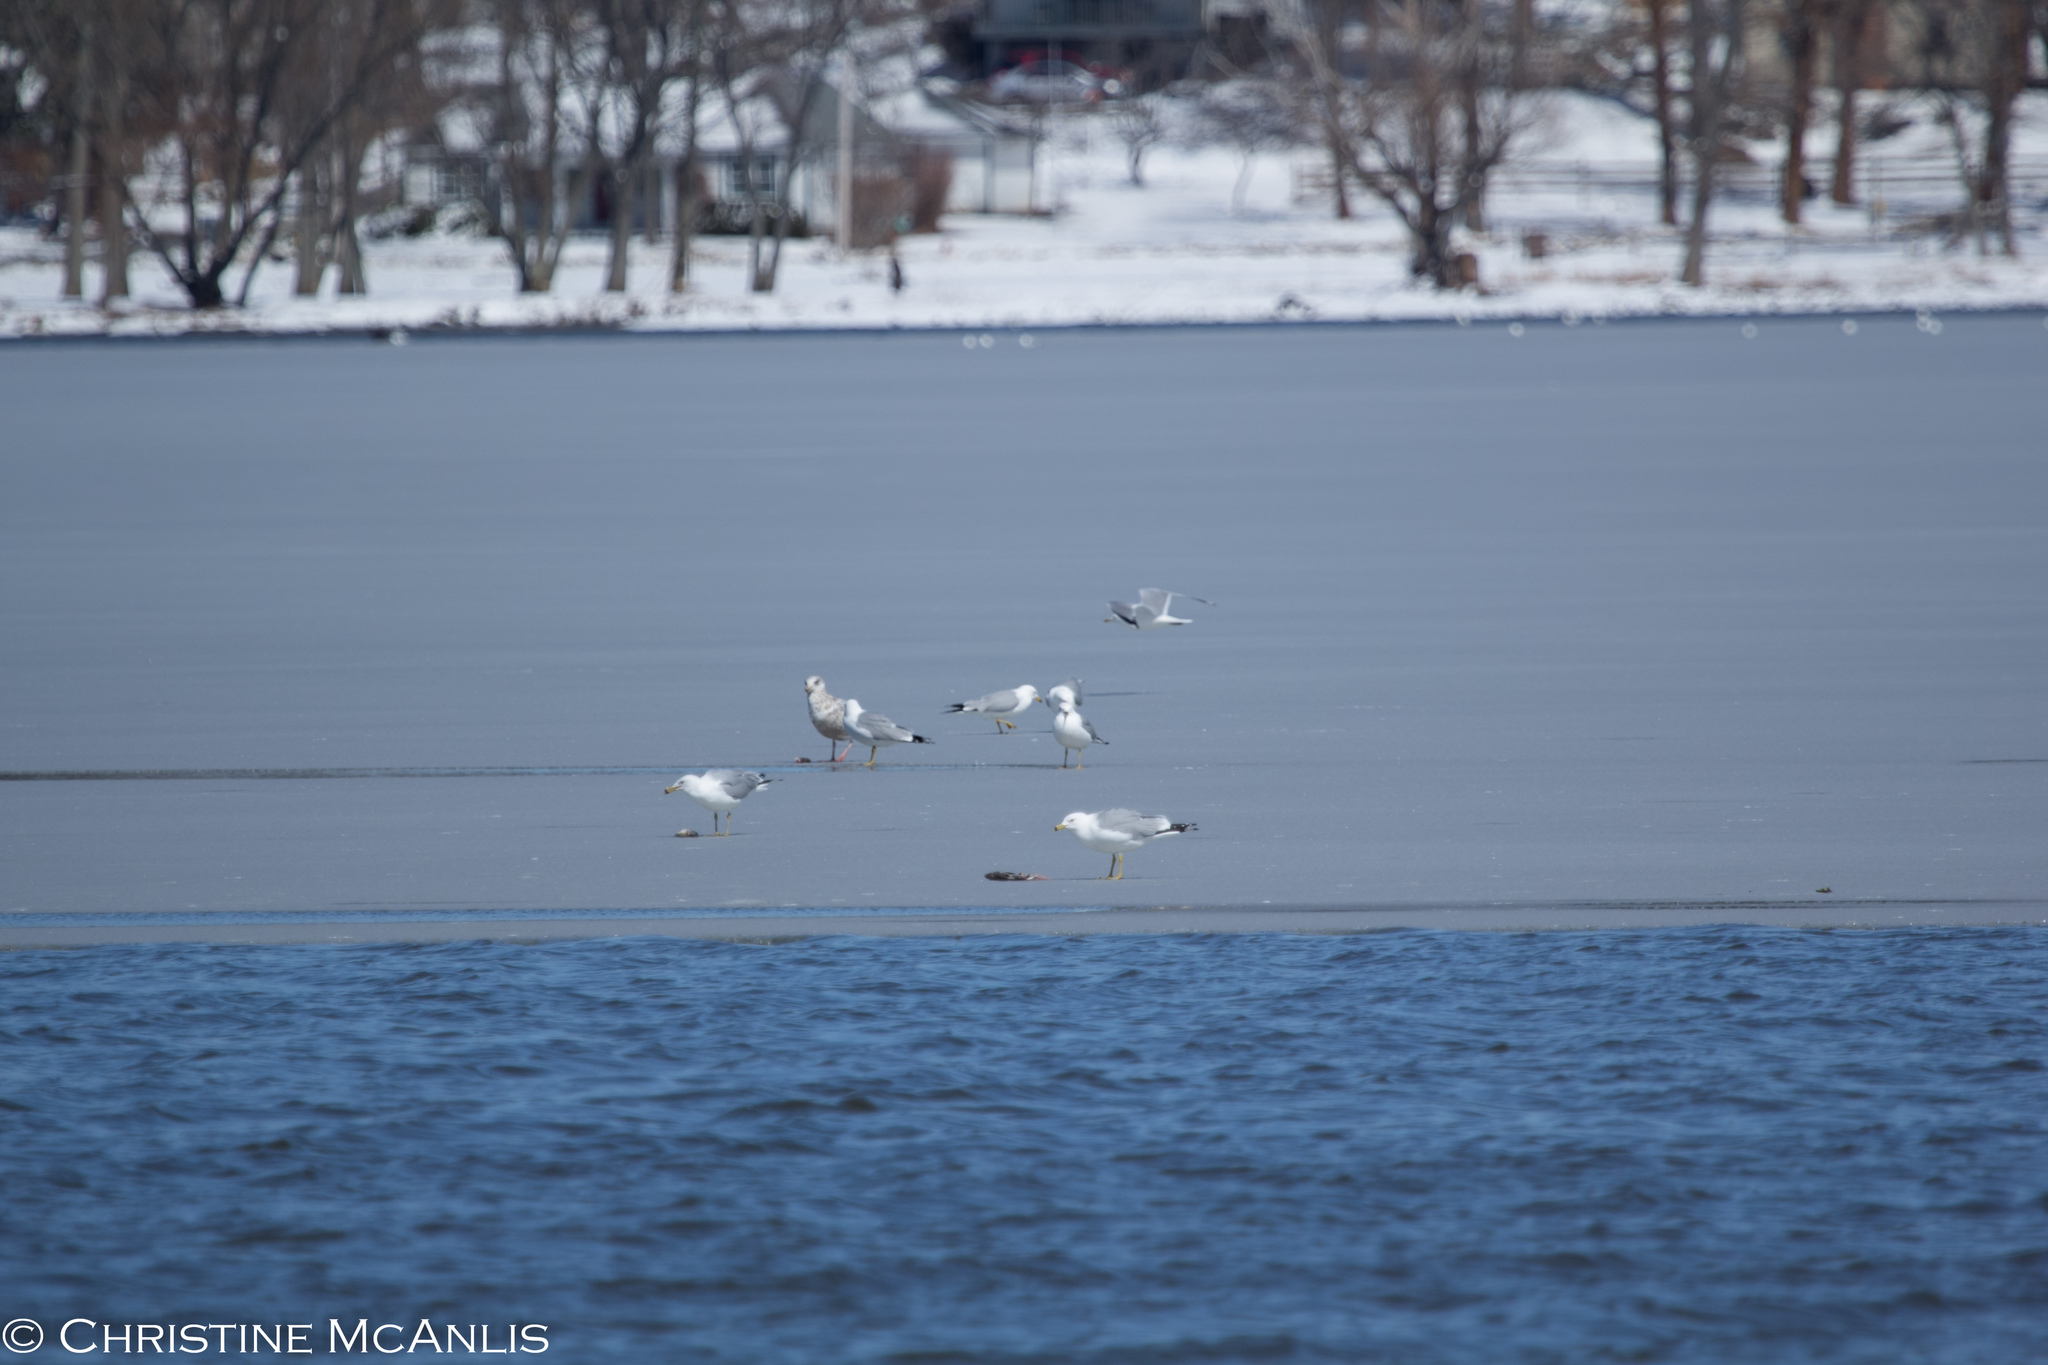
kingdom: Animalia
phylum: Chordata
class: Aves
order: Charadriiformes
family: Laridae
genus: Larus
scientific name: Larus delawarensis
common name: Ring-billed gull
